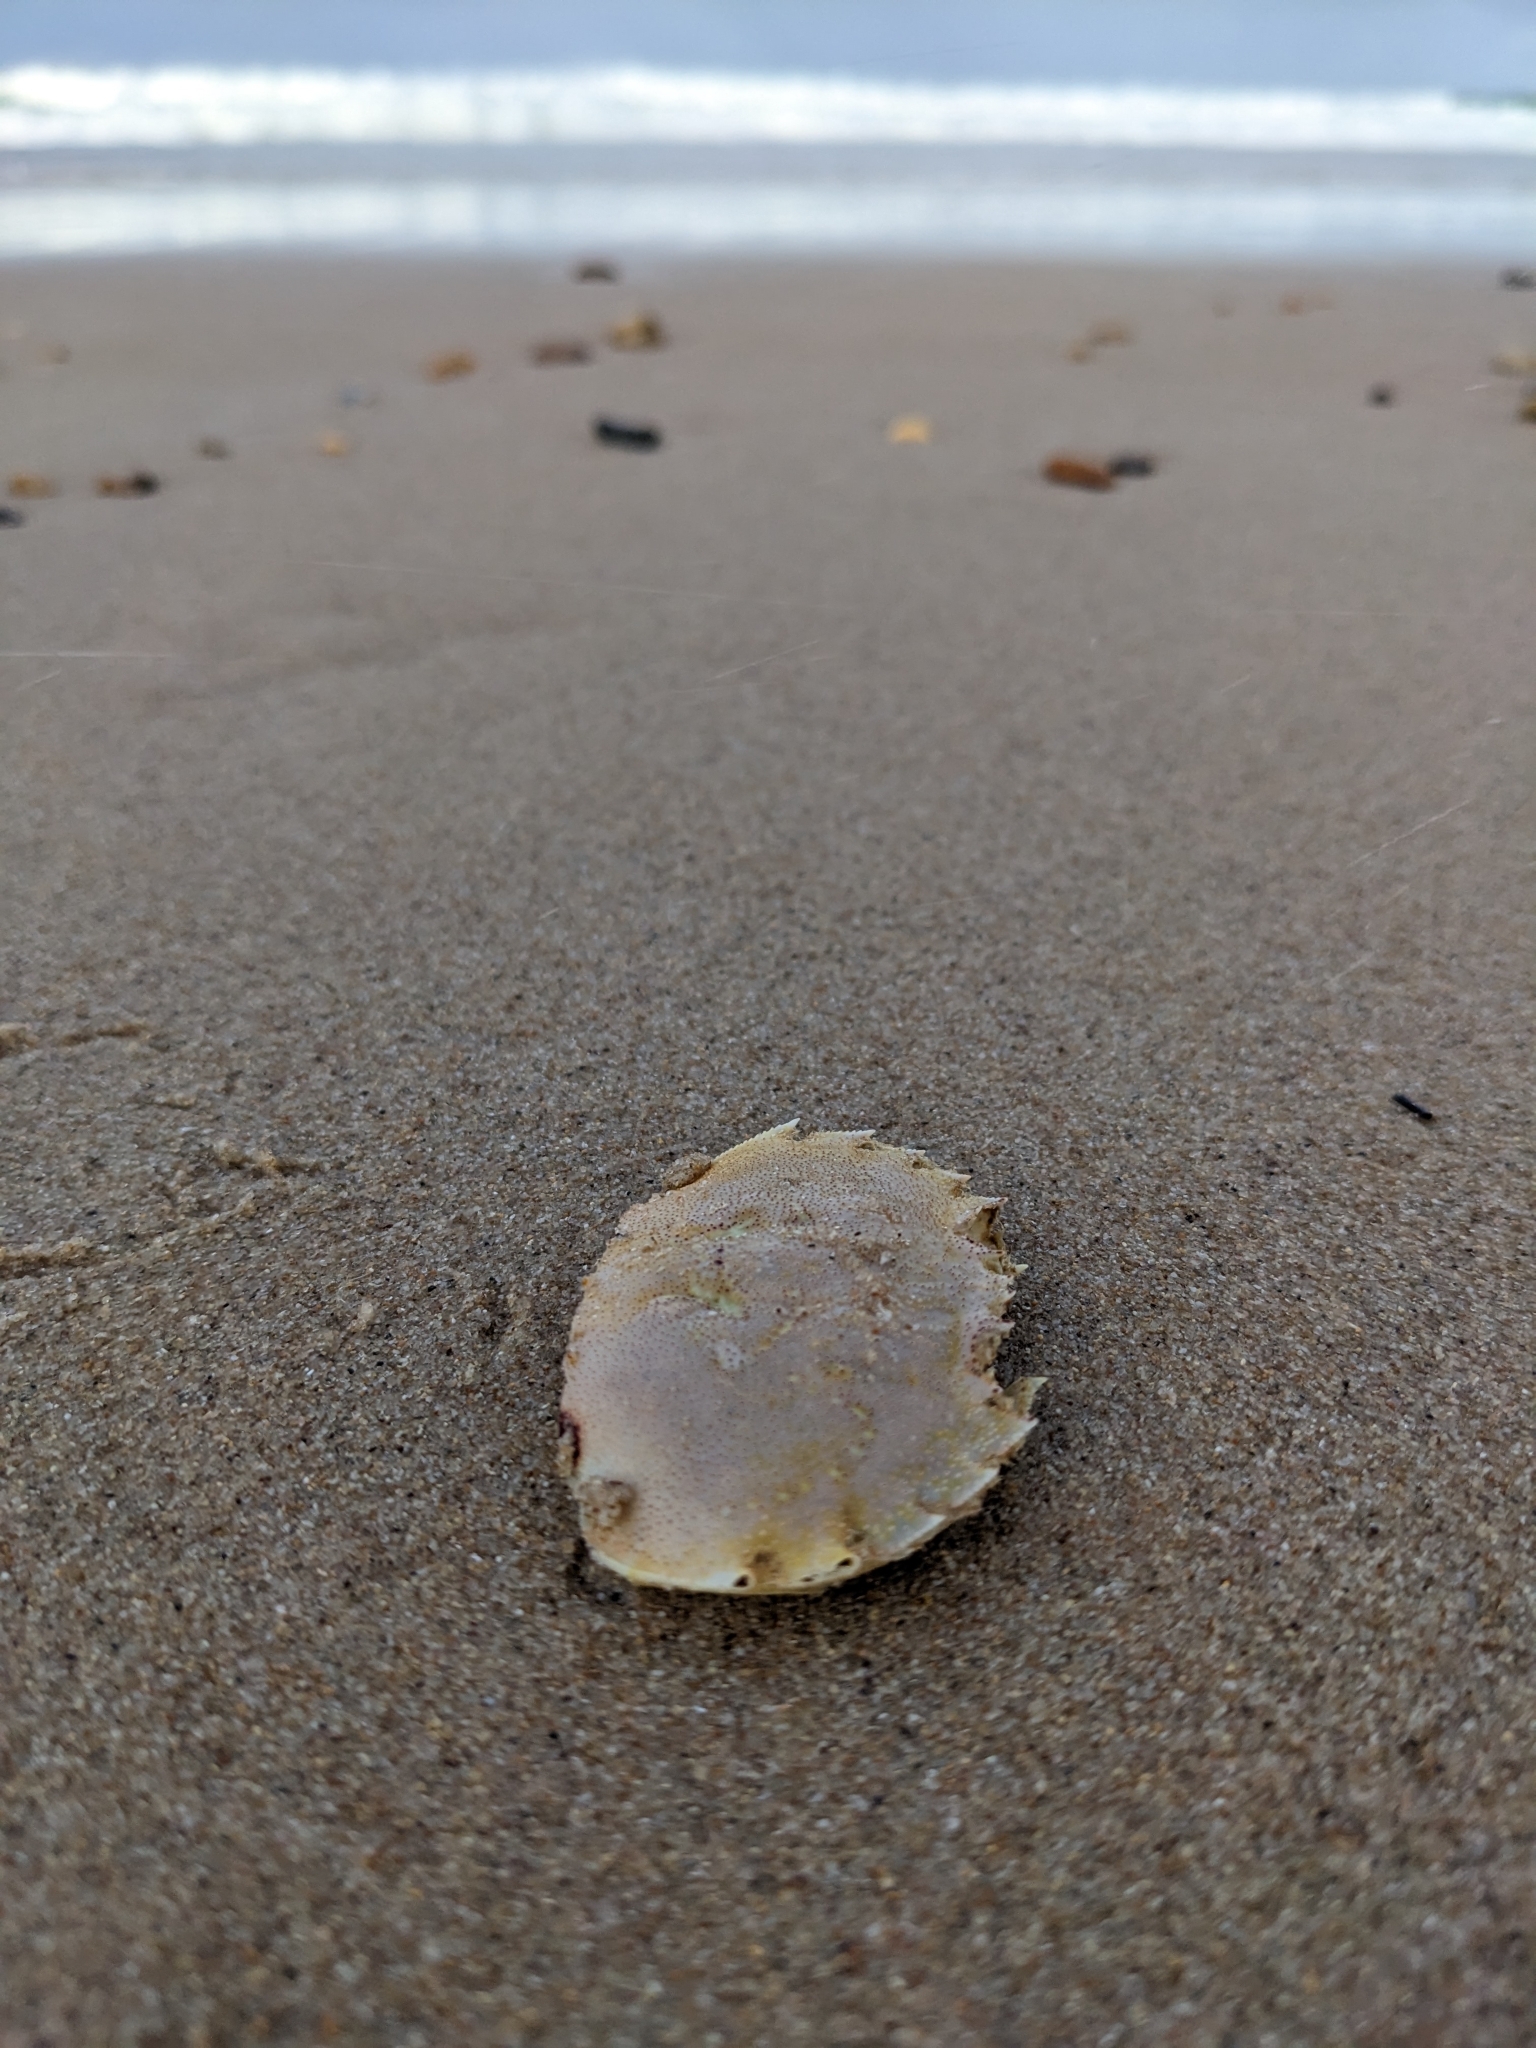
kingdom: Animalia
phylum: Arthropoda
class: Malacostraca
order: Decapoda
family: Ovalipidae
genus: Ovalipes
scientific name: Ovalipes australiensis
